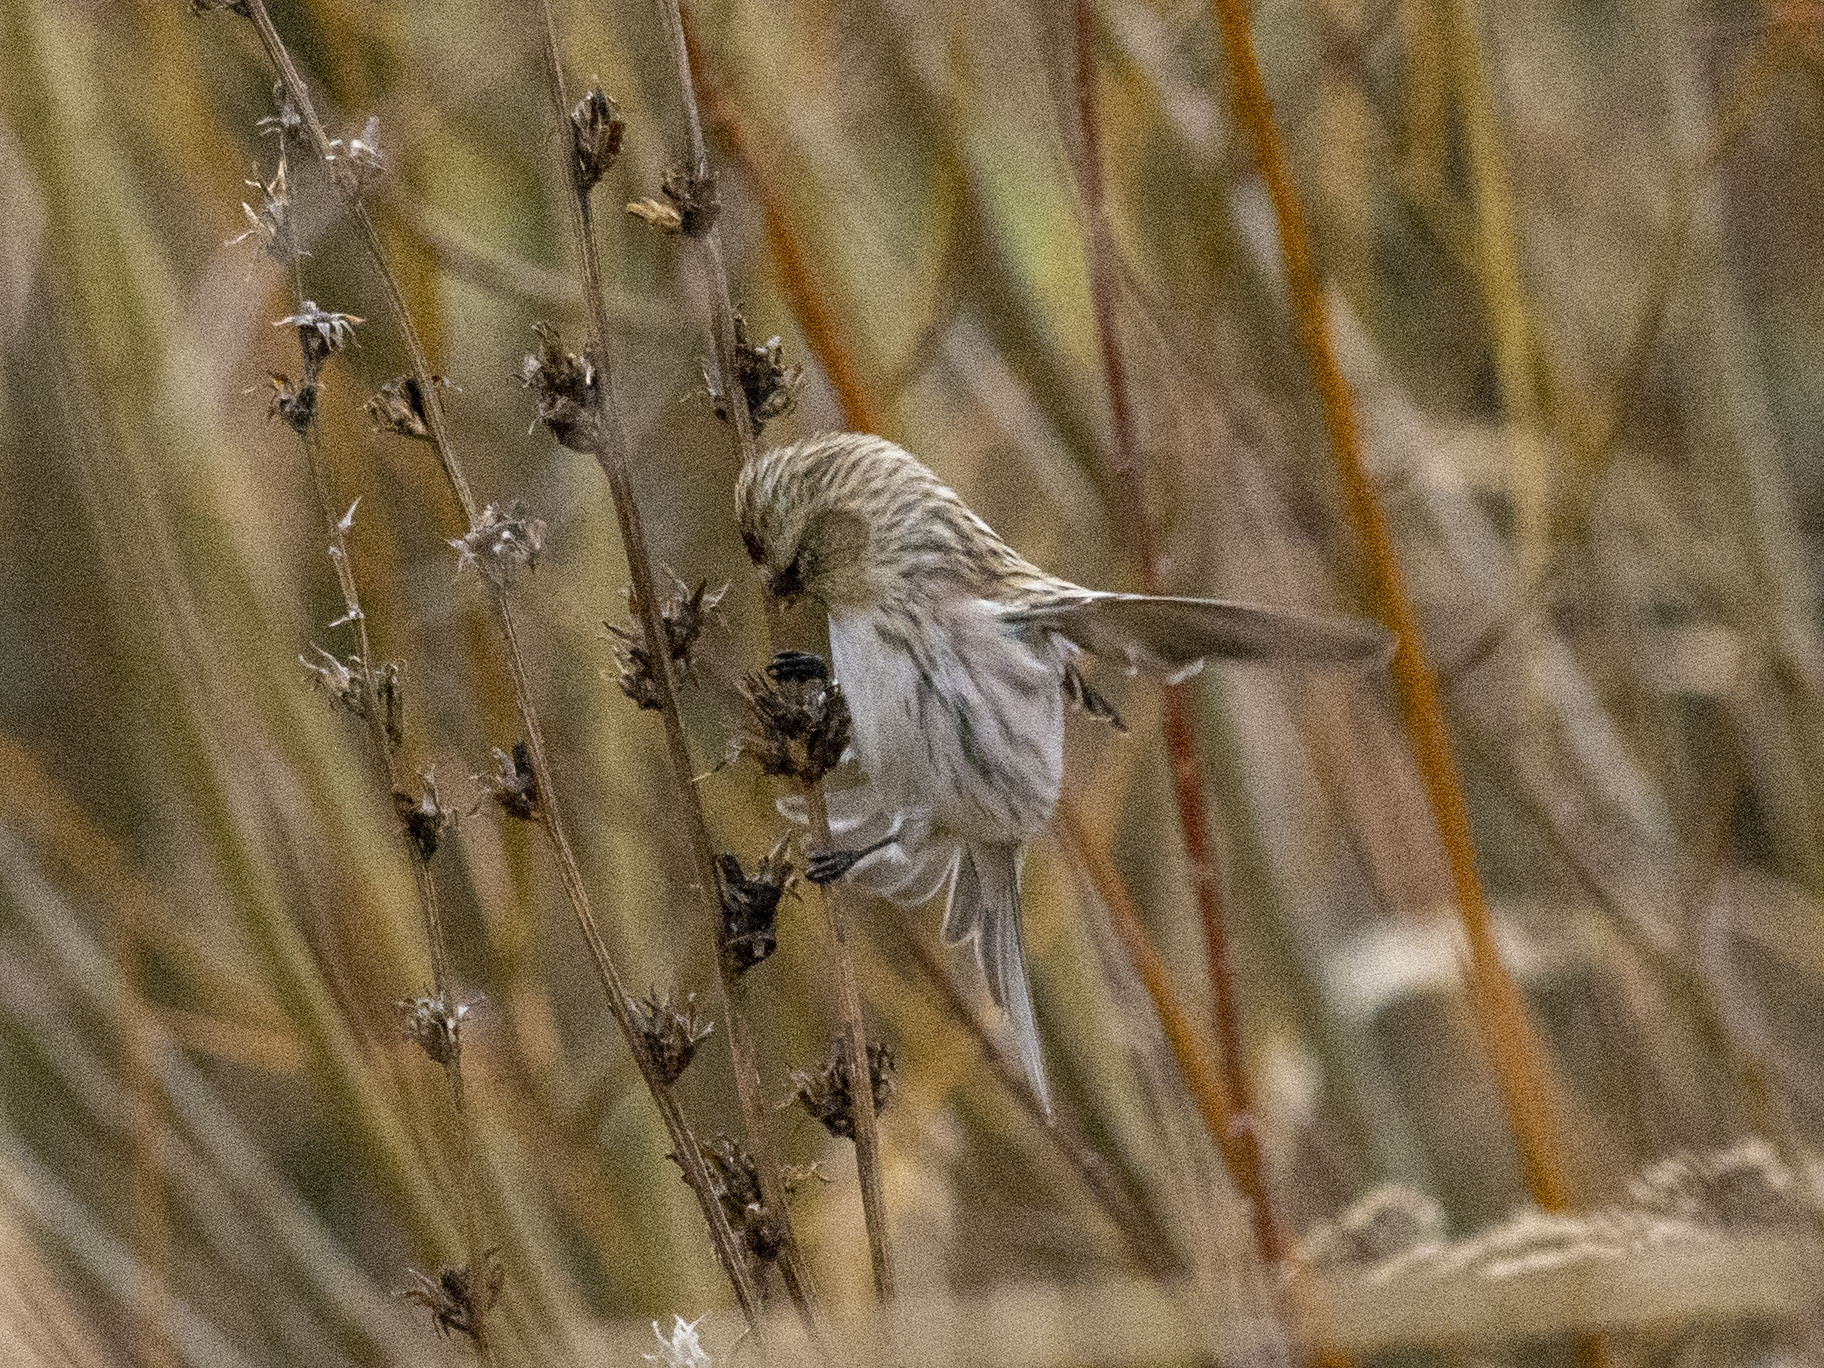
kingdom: Animalia
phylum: Chordata
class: Aves
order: Passeriformes
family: Fringillidae
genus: Acanthis
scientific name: Acanthis flammea
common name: Common redpoll
